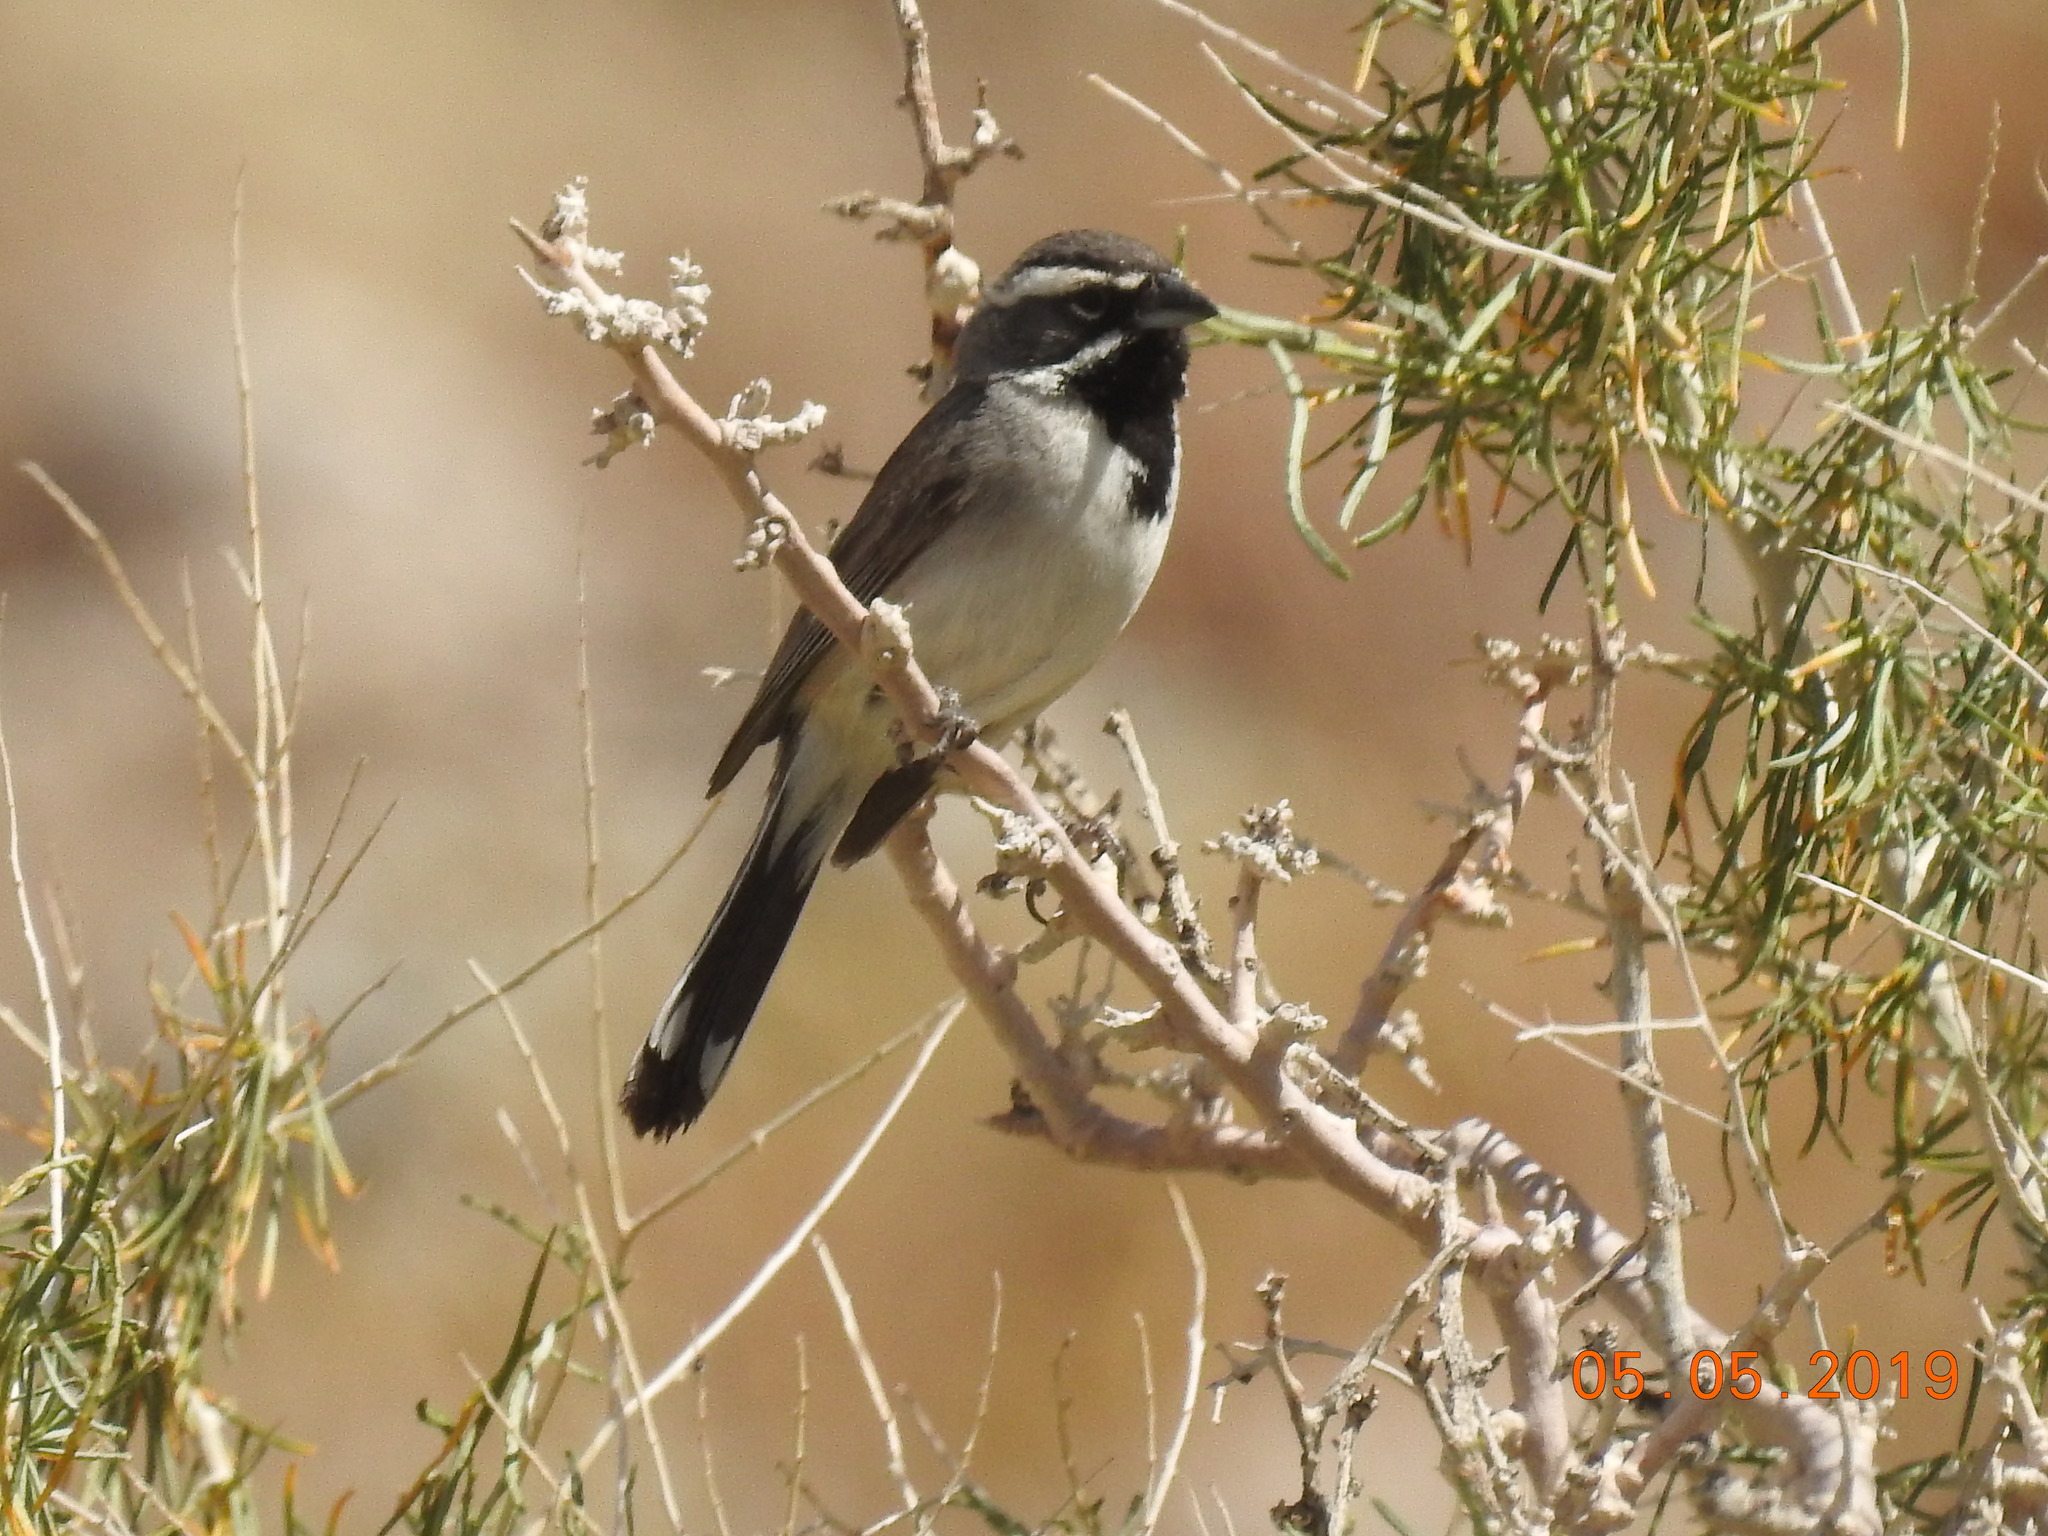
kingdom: Animalia
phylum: Chordata
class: Aves
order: Passeriformes
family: Passerellidae
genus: Amphispiza
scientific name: Amphispiza bilineata
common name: Black-throated sparrow
